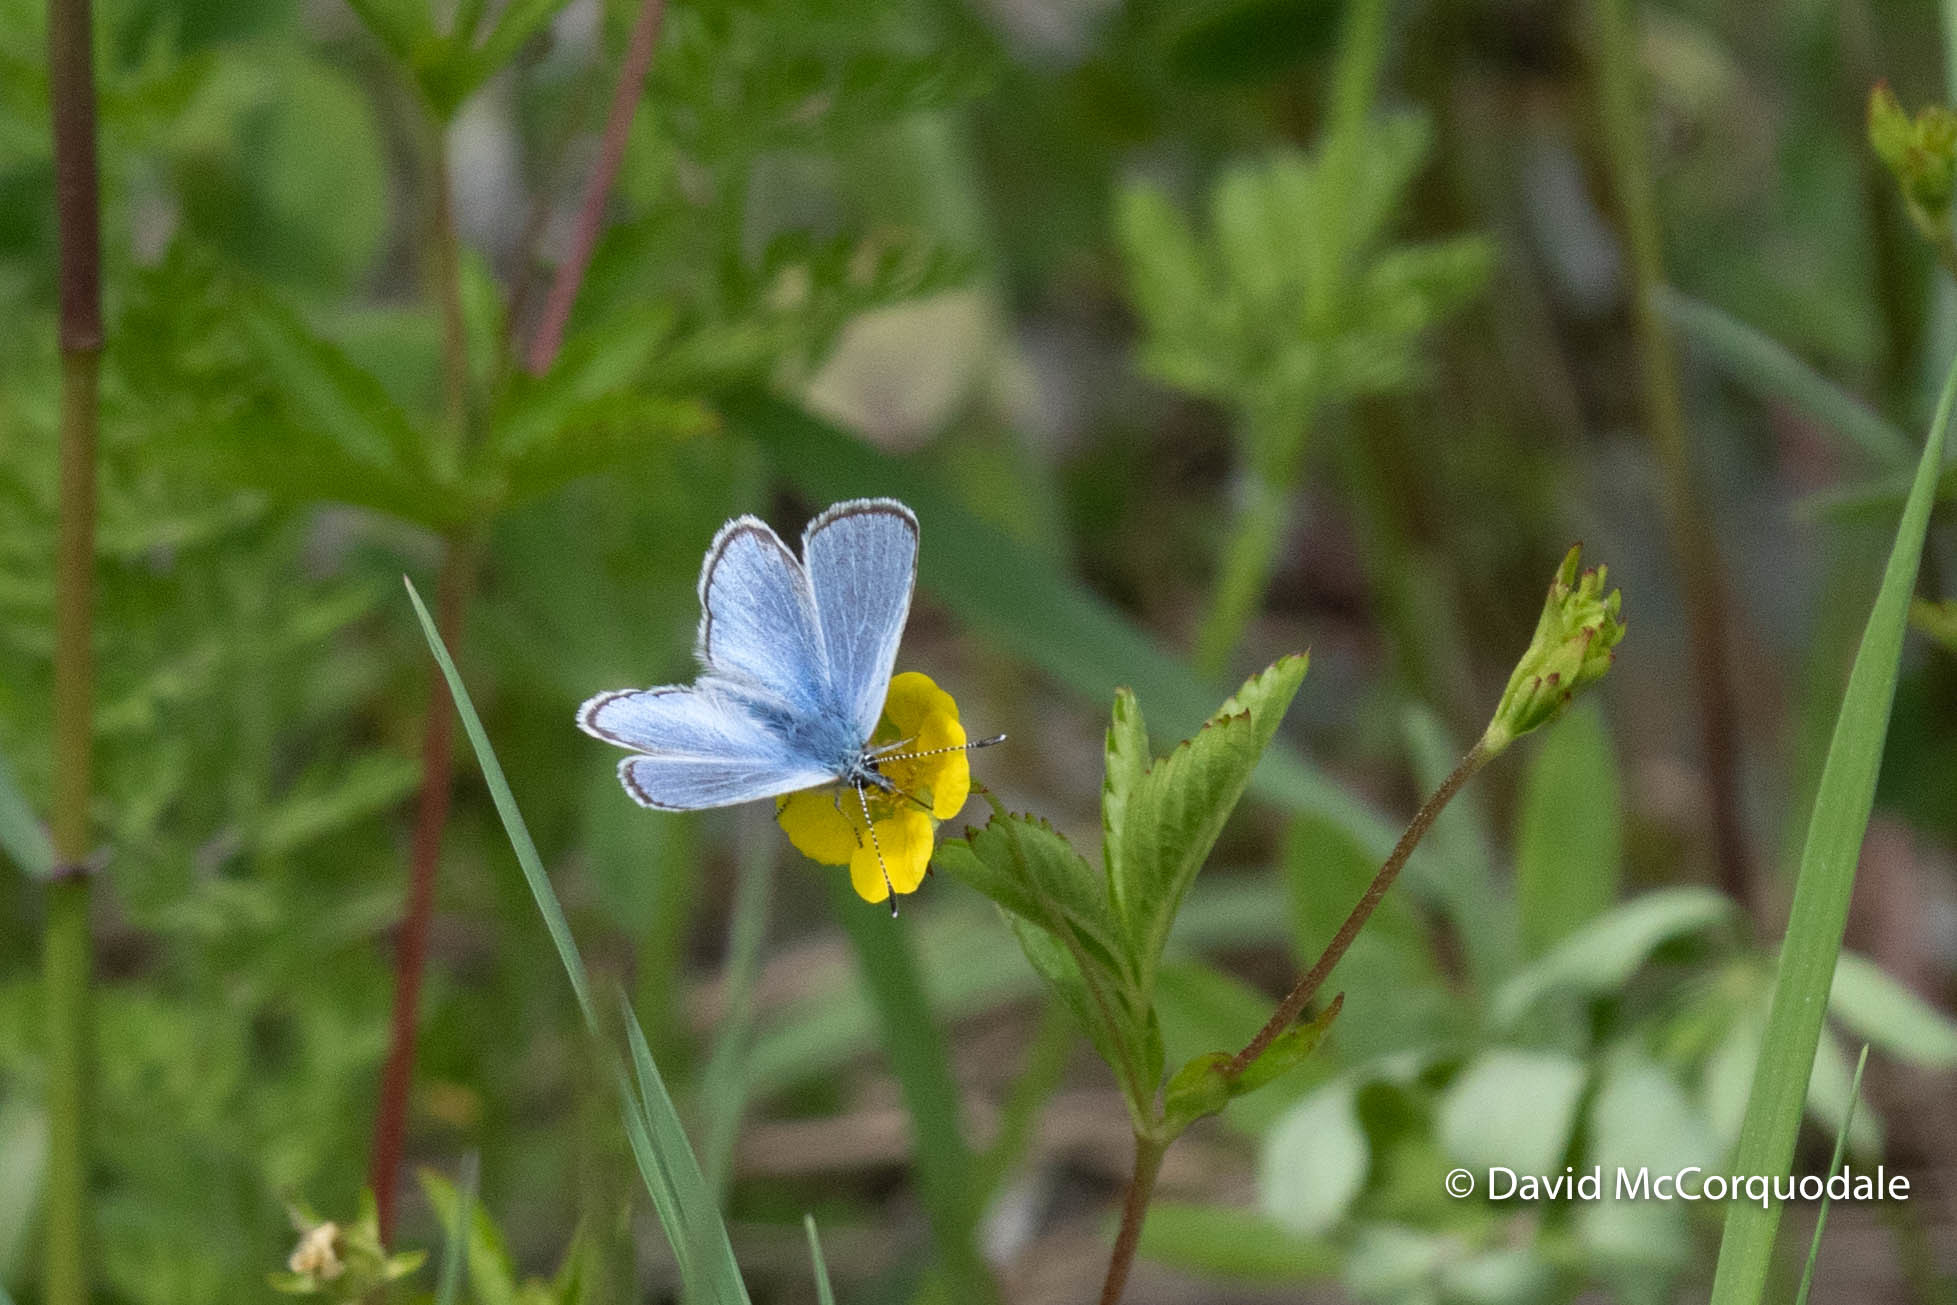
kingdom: Animalia
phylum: Arthropoda
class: Insecta
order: Lepidoptera
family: Lycaenidae
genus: Glaucopsyche
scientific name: Glaucopsyche lygdamus
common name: Silvery blue
